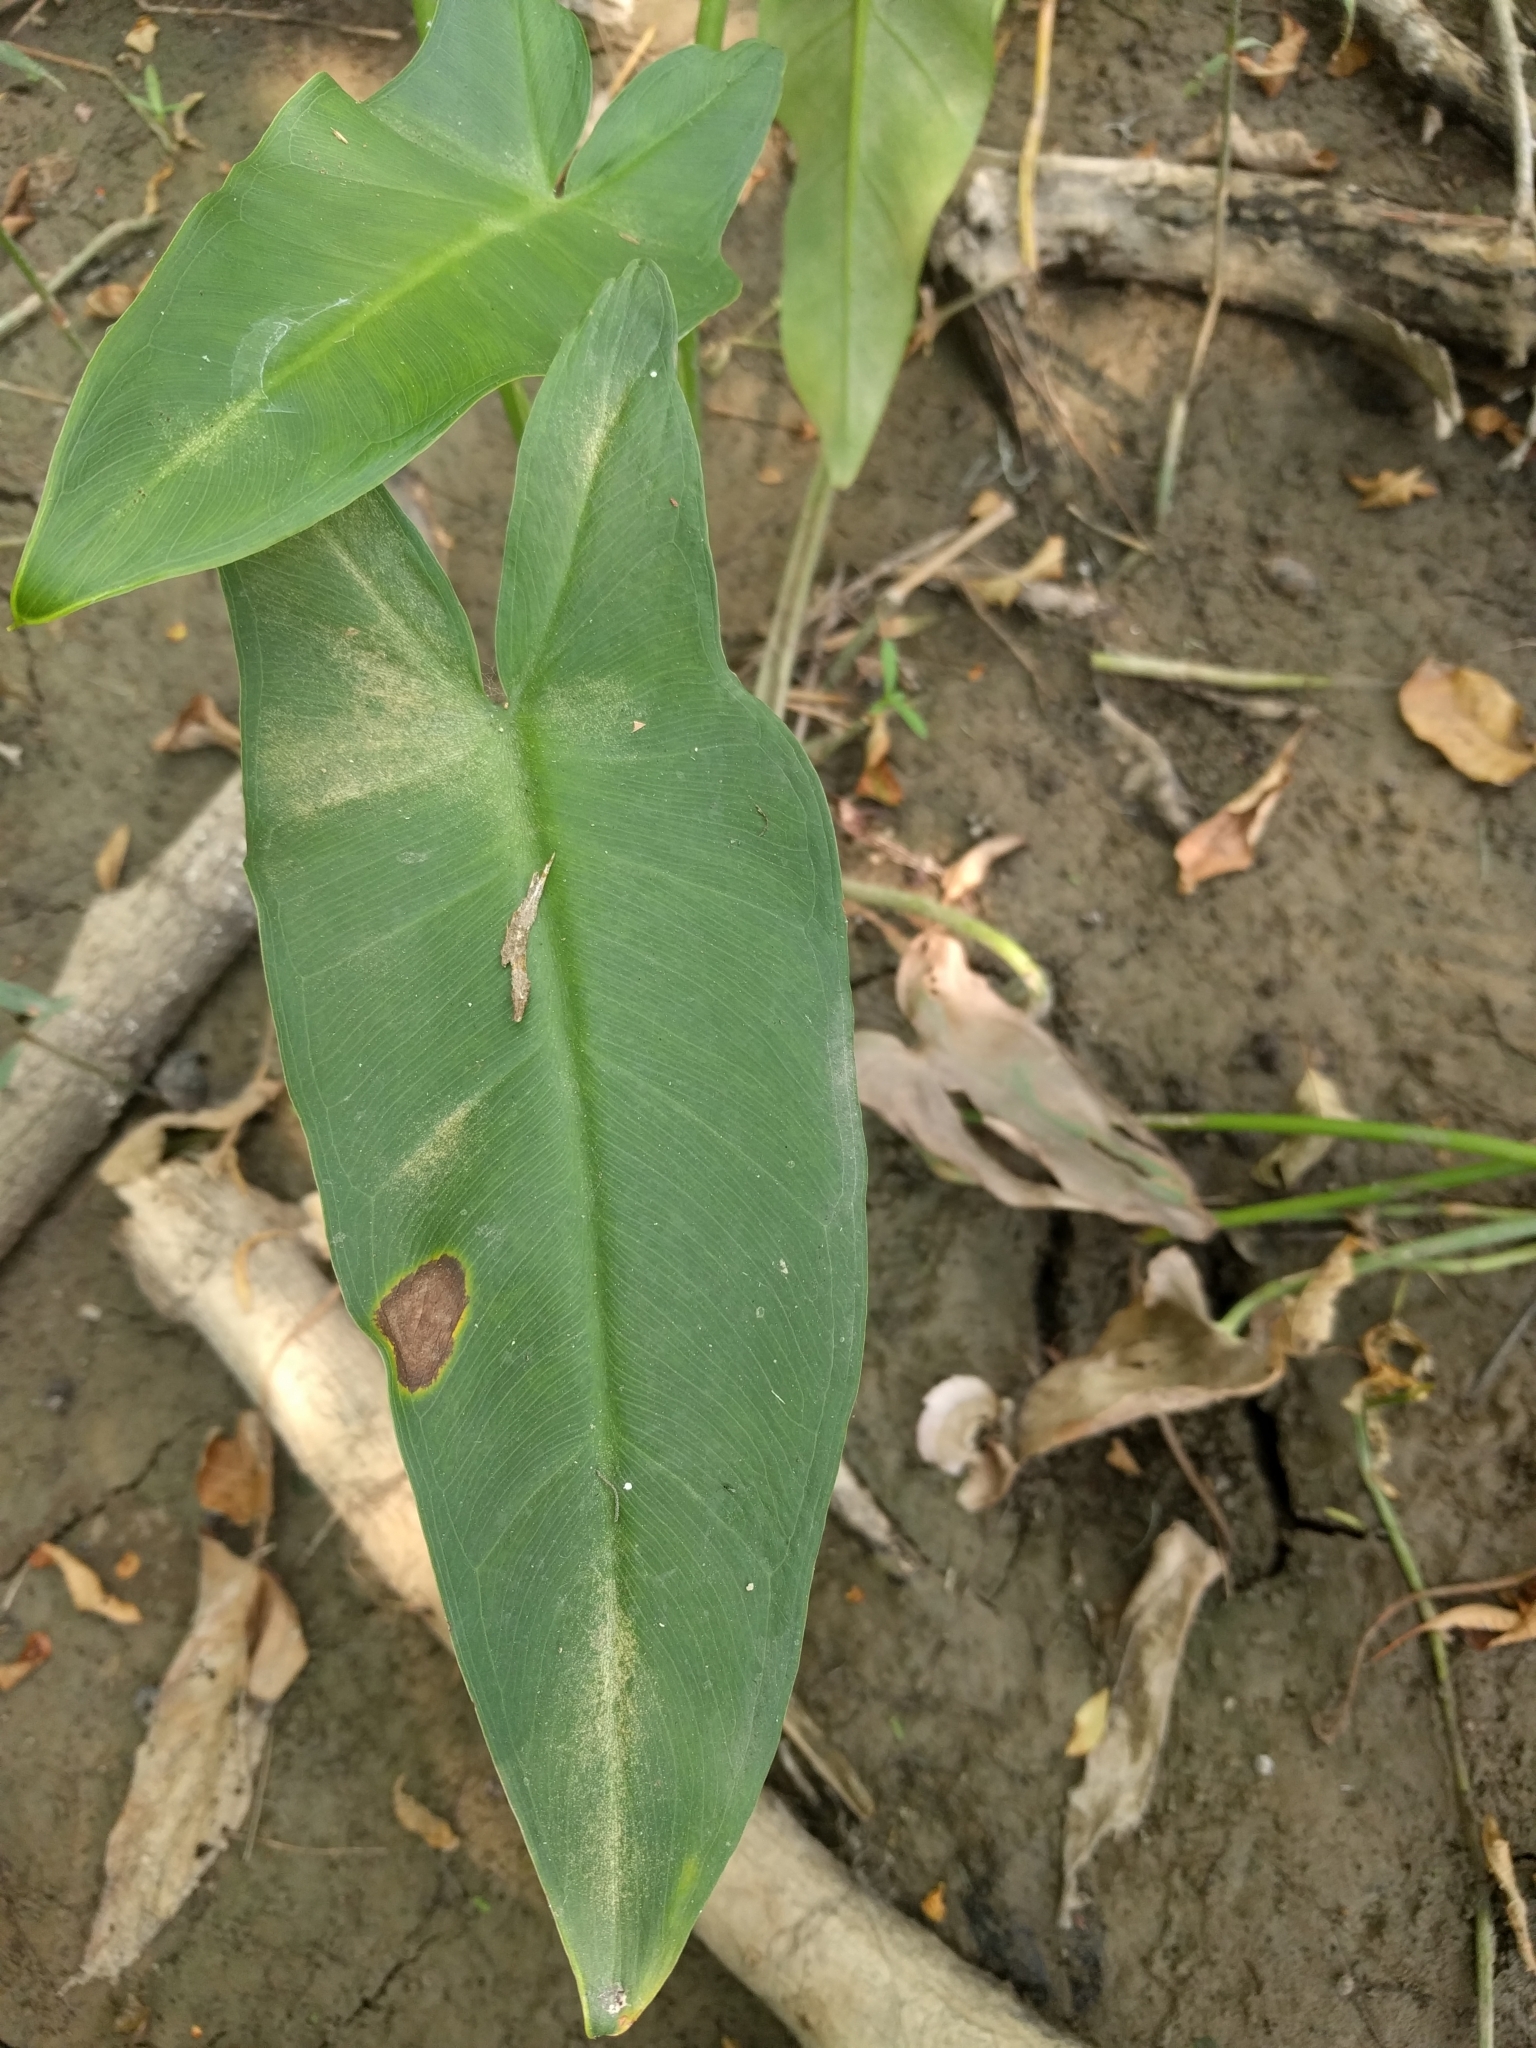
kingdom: Plantae
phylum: Tracheophyta
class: Liliopsida
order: Alismatales
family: Araceae
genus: Peltandra
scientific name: Peltandra virginica
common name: Arrow arum
